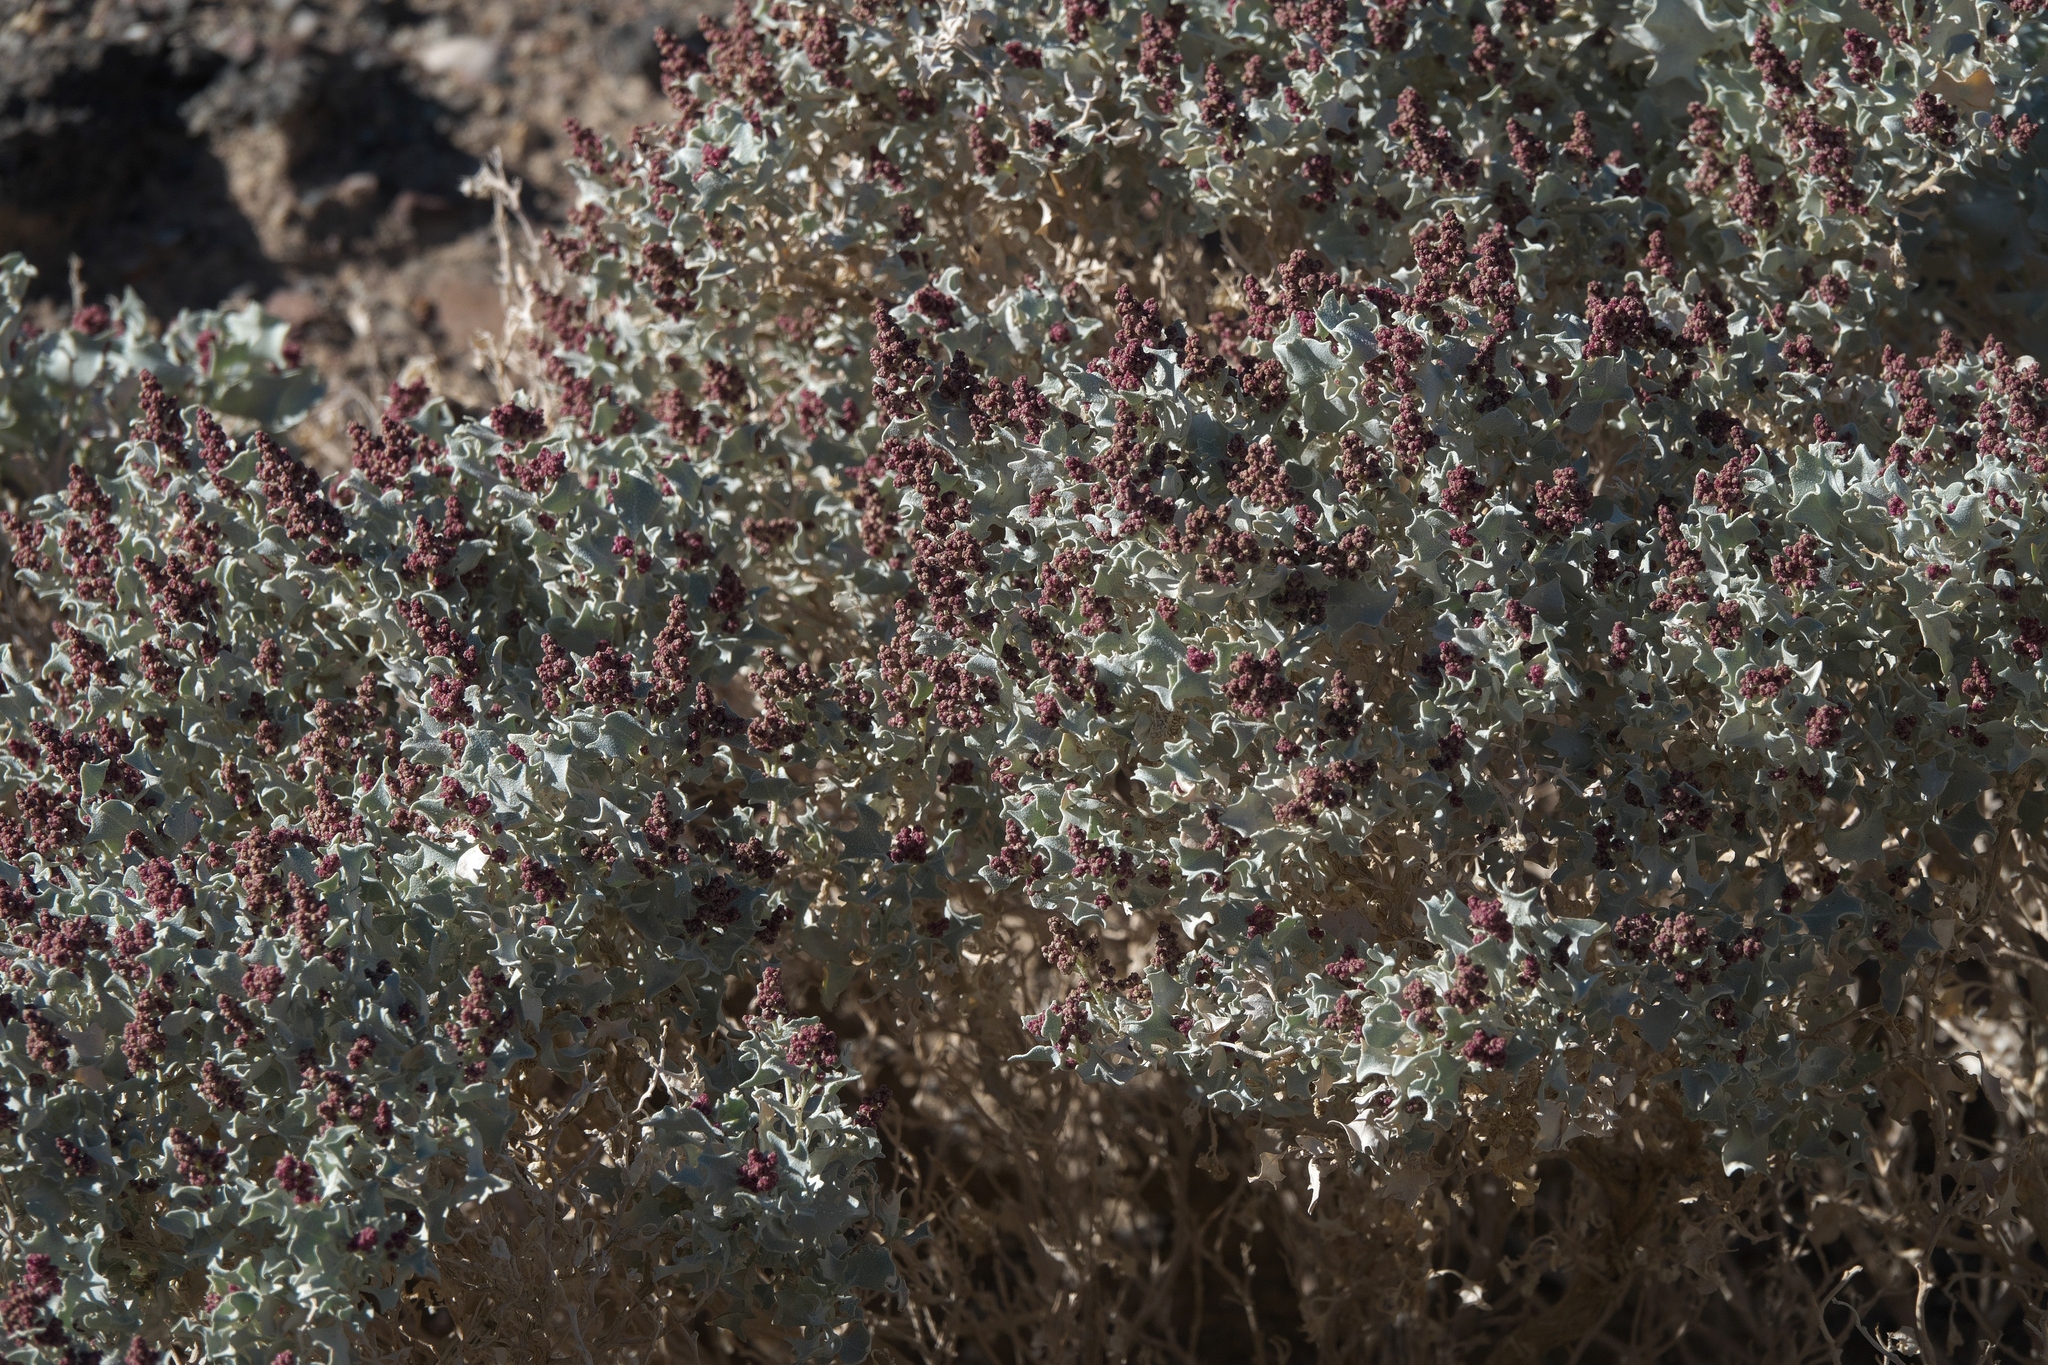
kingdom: Plantae
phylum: Tracheophyta
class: Magnoliopsida
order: Caryophyllales
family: Amaranthaceae
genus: Atriplex
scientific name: Atriplex hymenelytra
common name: Desert-holly
